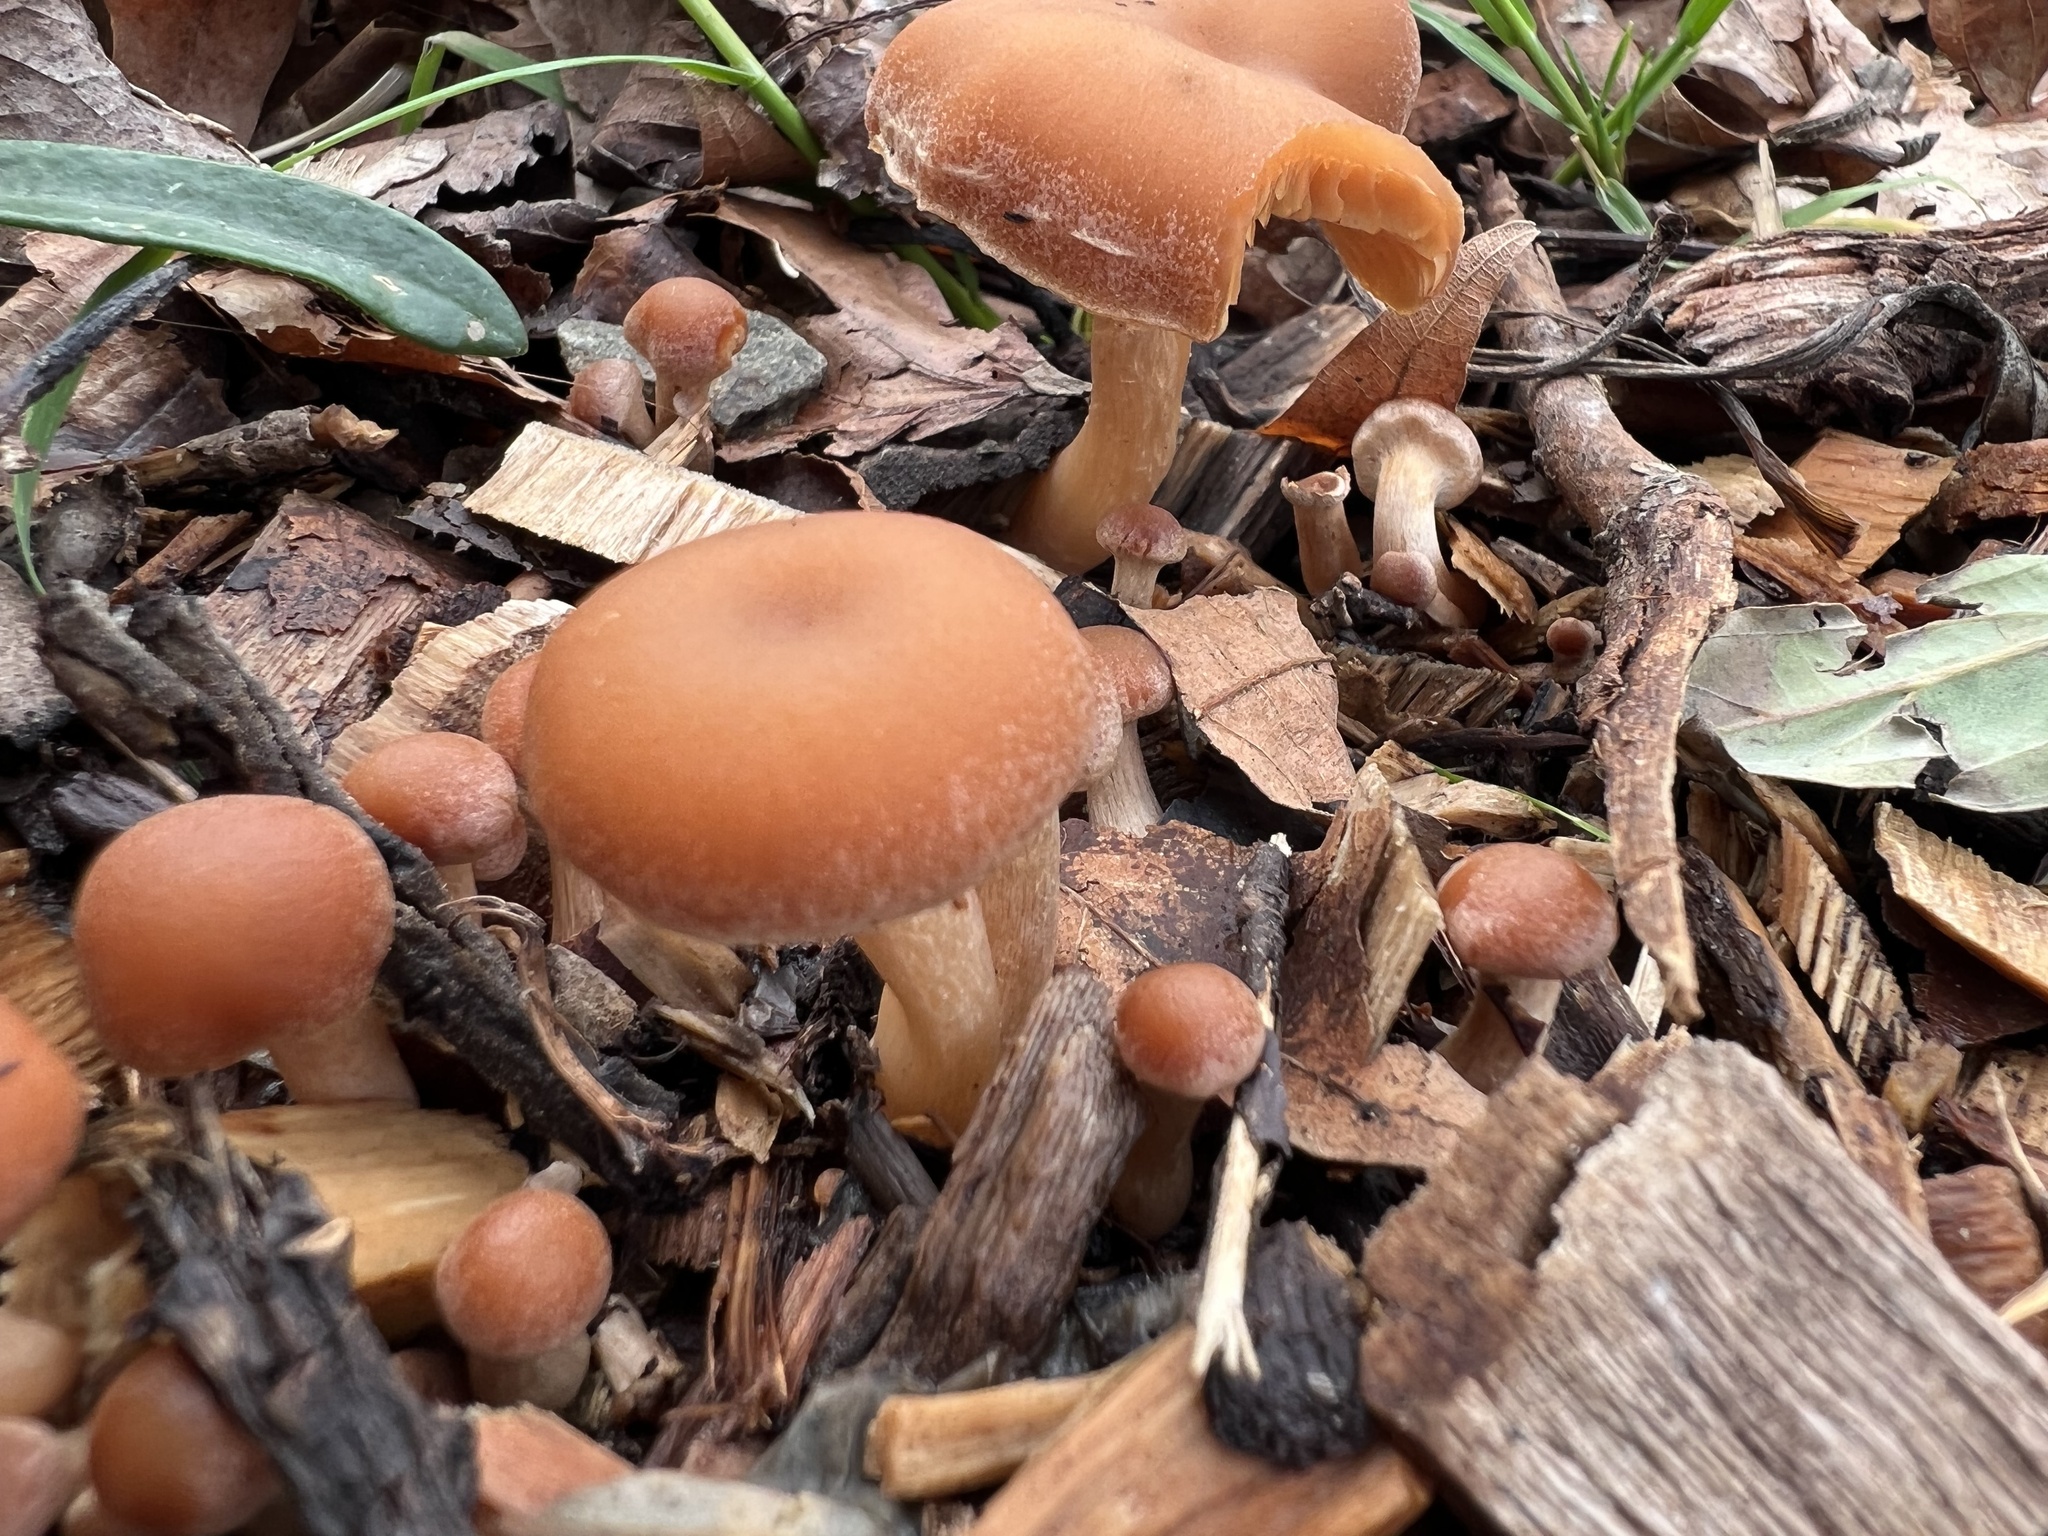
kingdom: Fungi
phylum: Basidiomycota
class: Agaricomycetes
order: Agaricales
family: Tubariaceae
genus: Tubaria
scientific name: Tubaria furfuracea
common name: Scurfy twiglet
